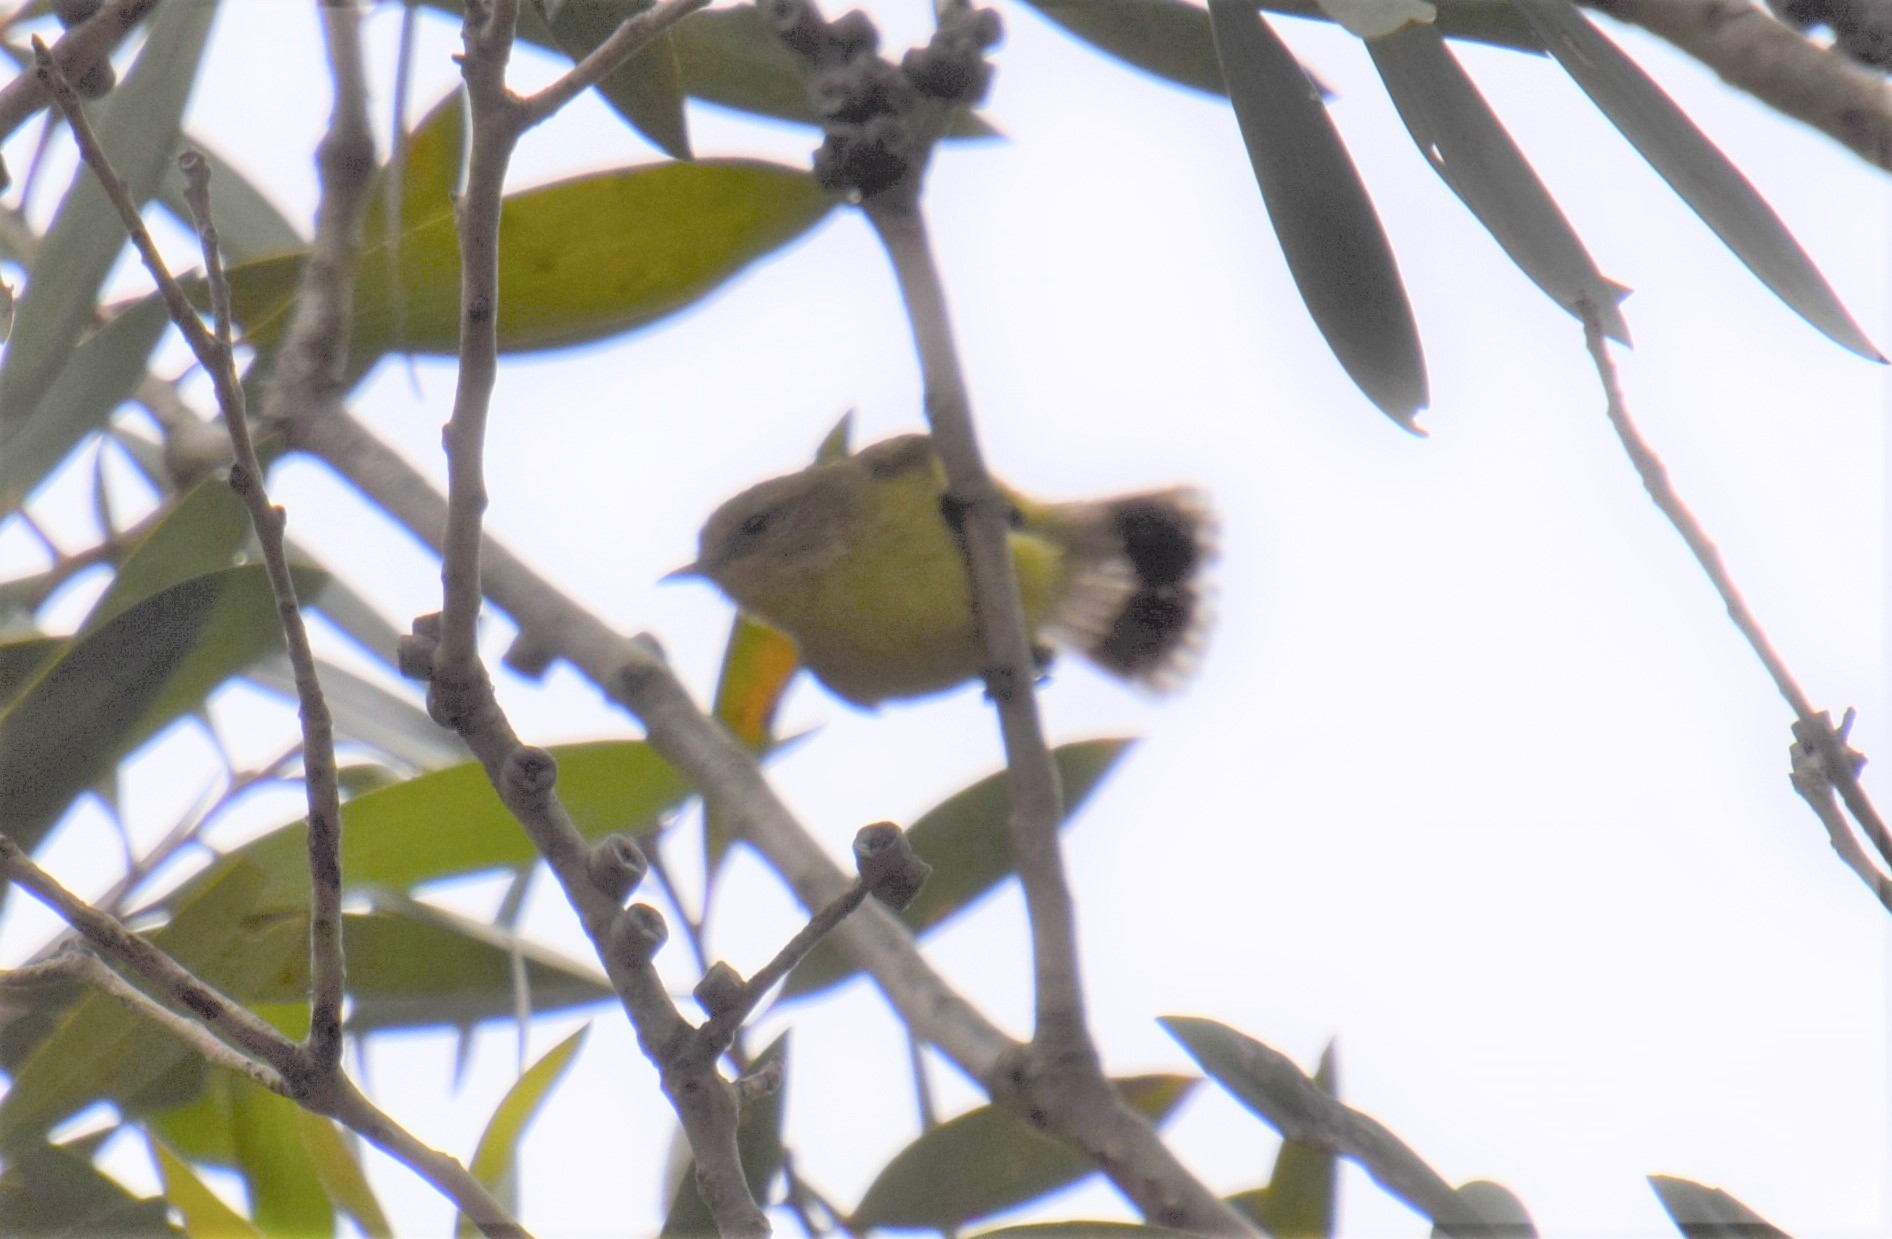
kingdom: Animalia
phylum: Chordata
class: Aves
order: Passeriformes
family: Acanthizidae
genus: Acanthiza
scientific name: Acanthiza nana
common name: Yellow thornbill
